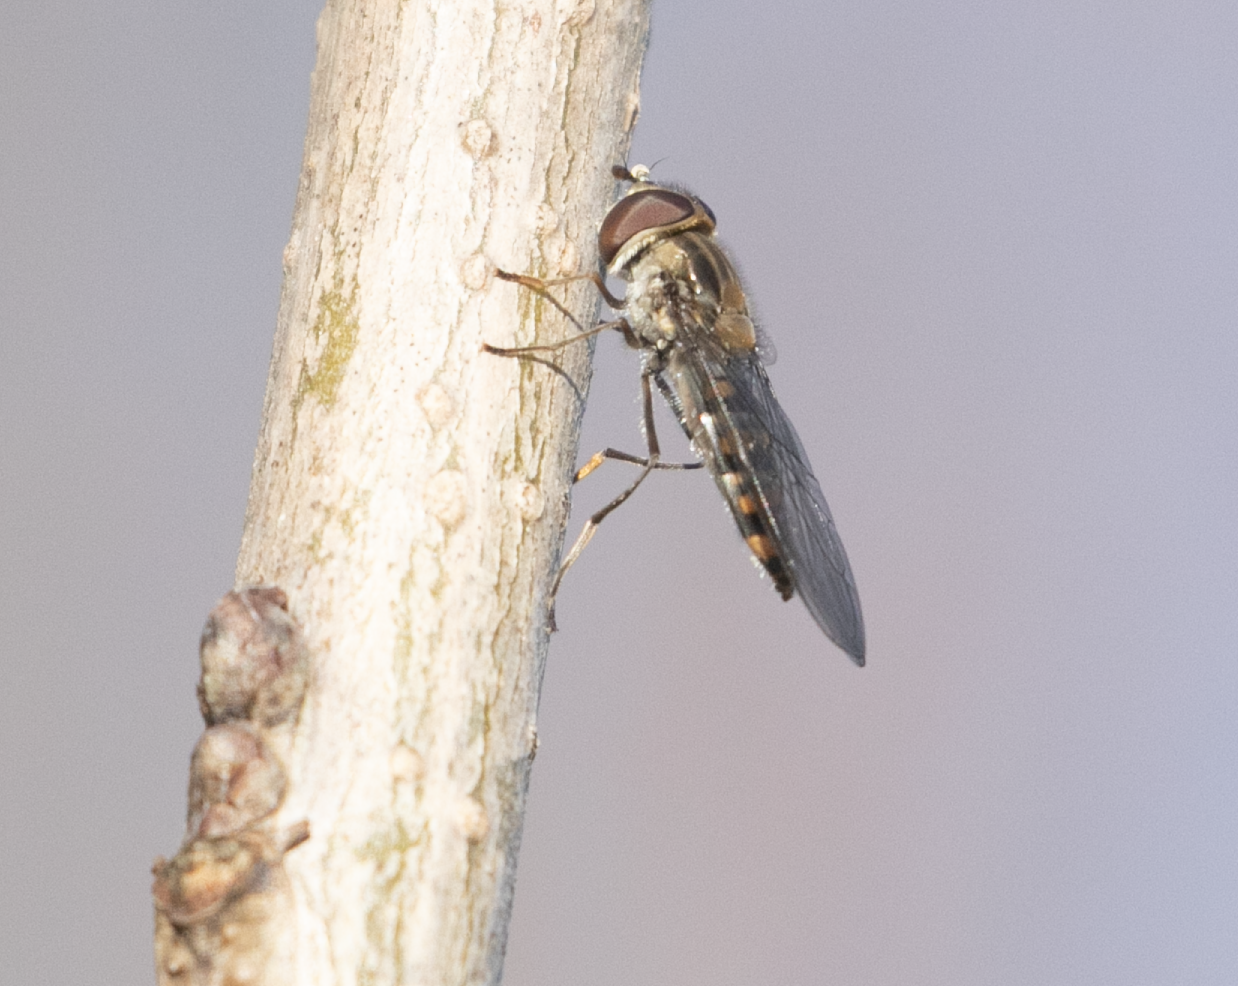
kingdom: Animalia
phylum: Arthropoda
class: Insecta
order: Diptera
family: Syrphidae
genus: Episyrphus
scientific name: Episyrphus balteatus
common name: Marmalade hoverfly
